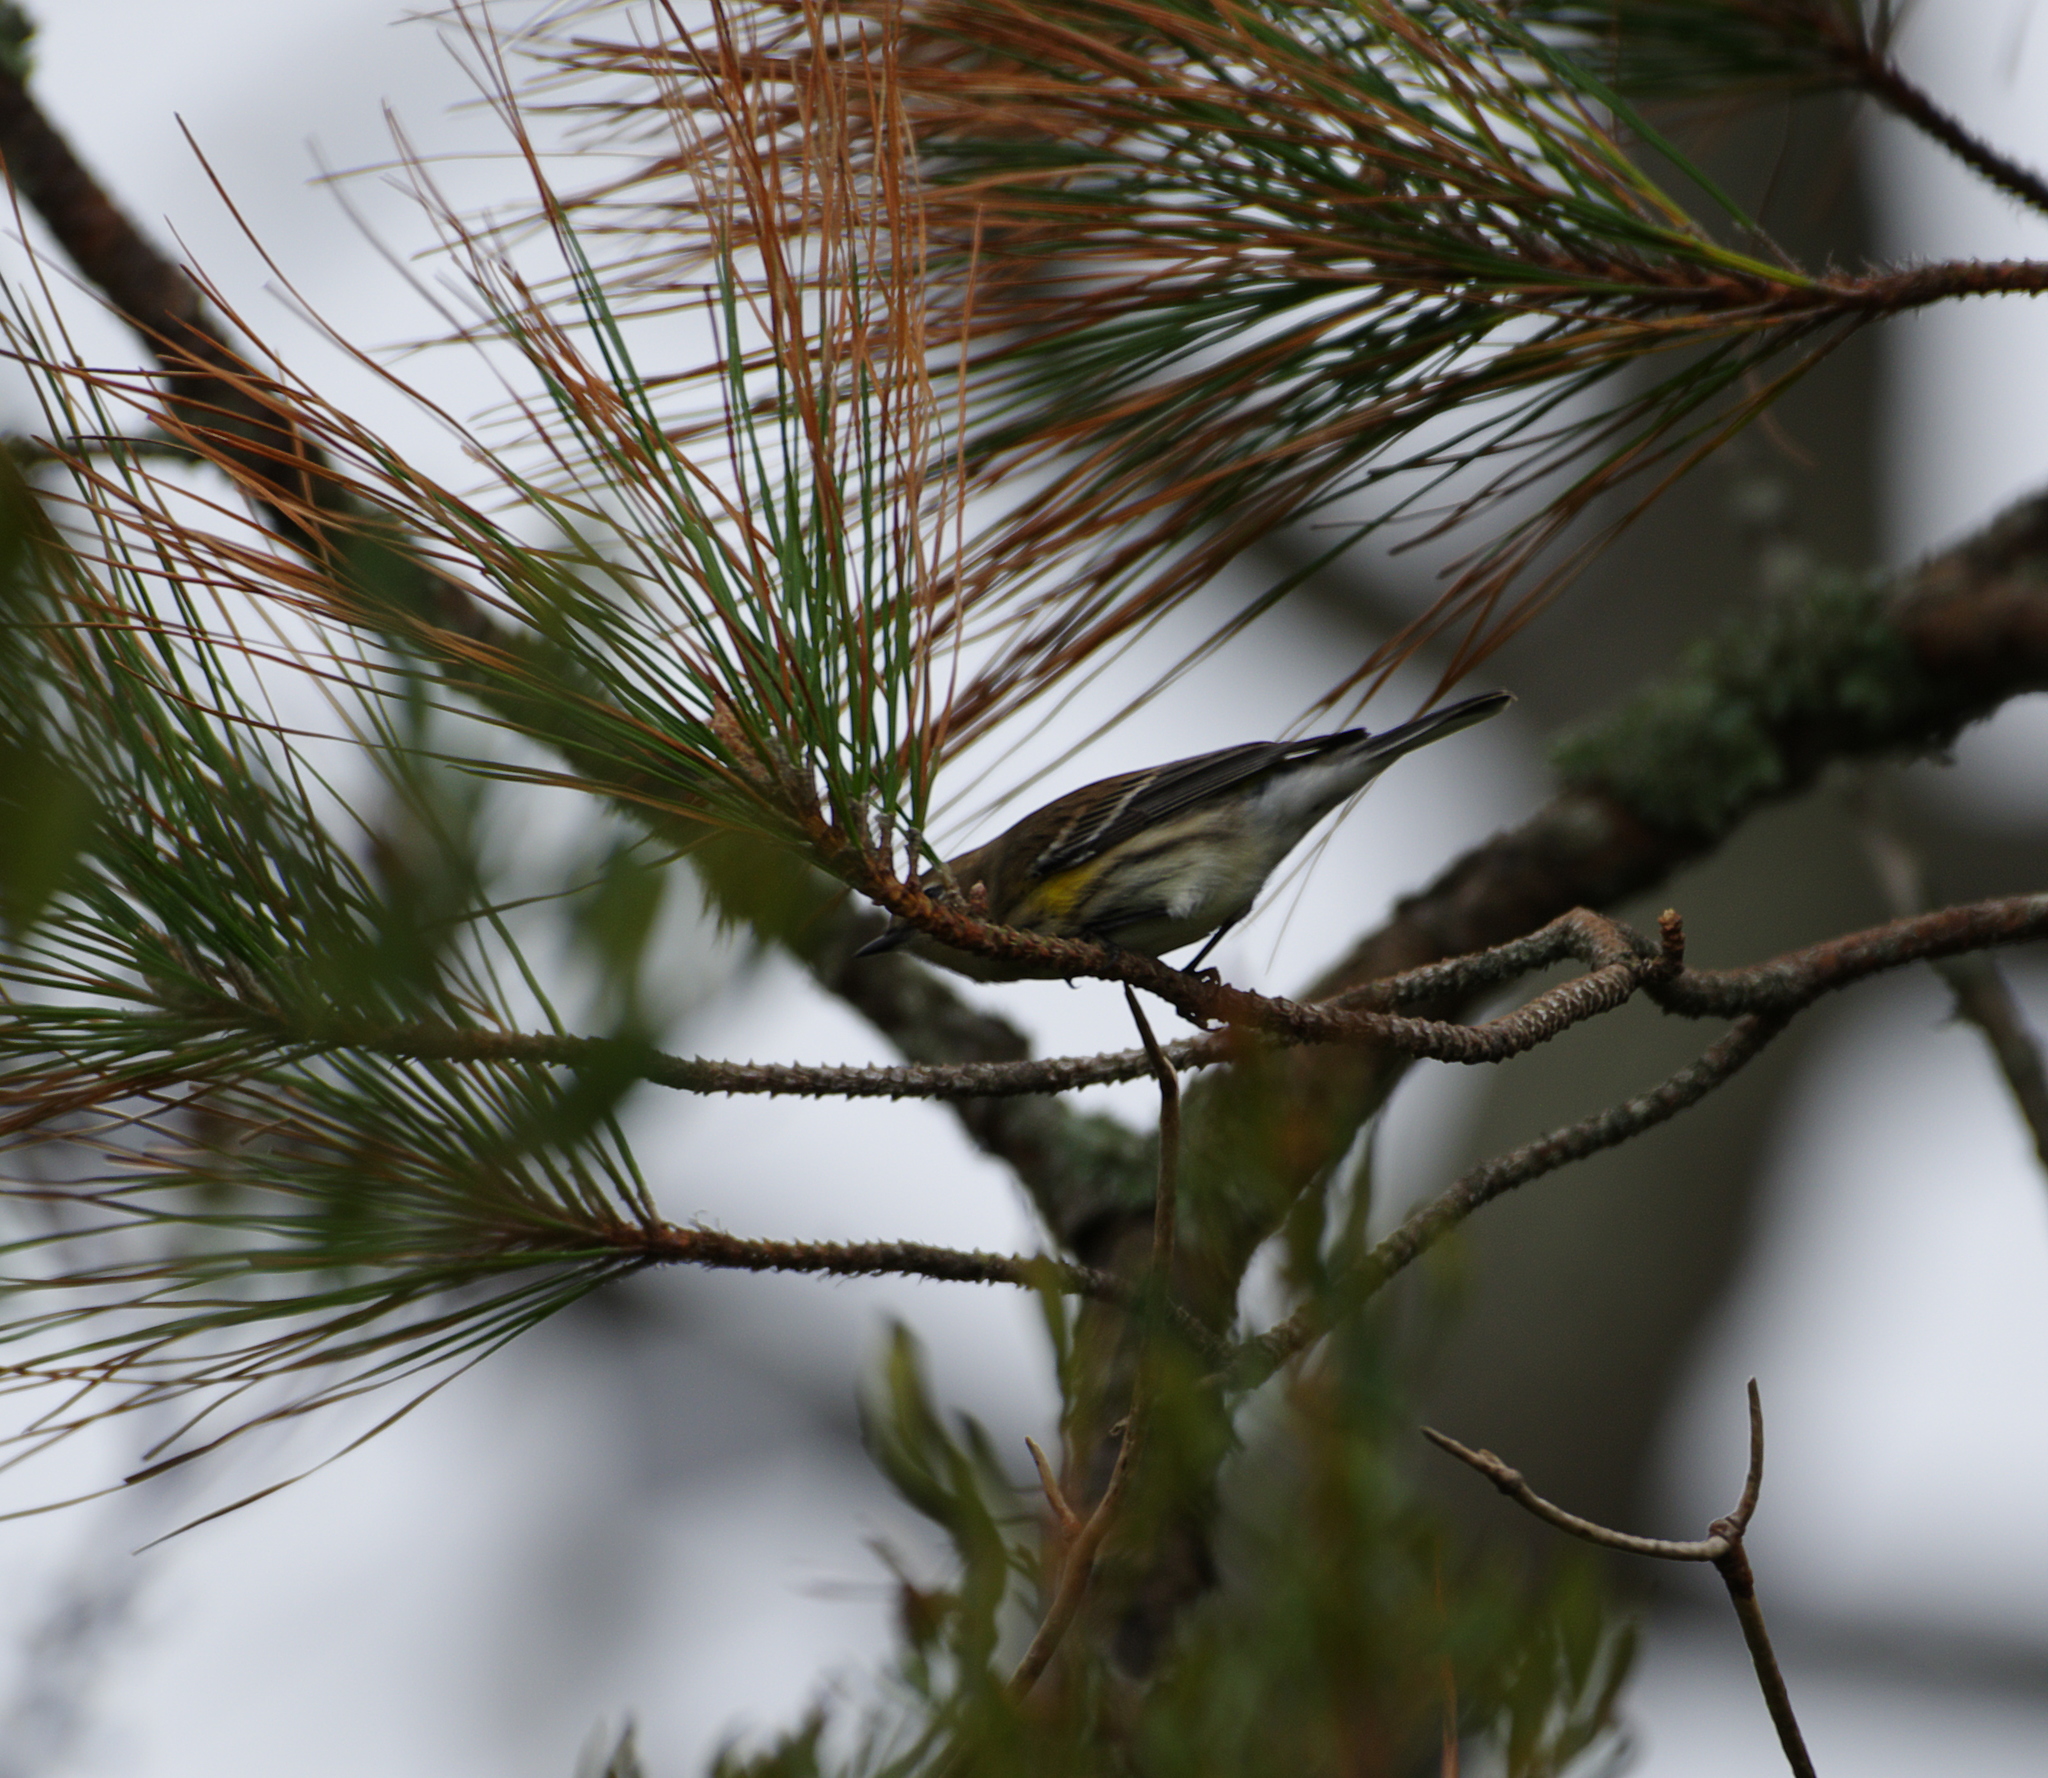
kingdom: Animalia
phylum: Chordata
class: Aves
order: Passeriformes
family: Parulidae
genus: Setophaga
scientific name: Setophaga coronata
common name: Myrtle warbler
